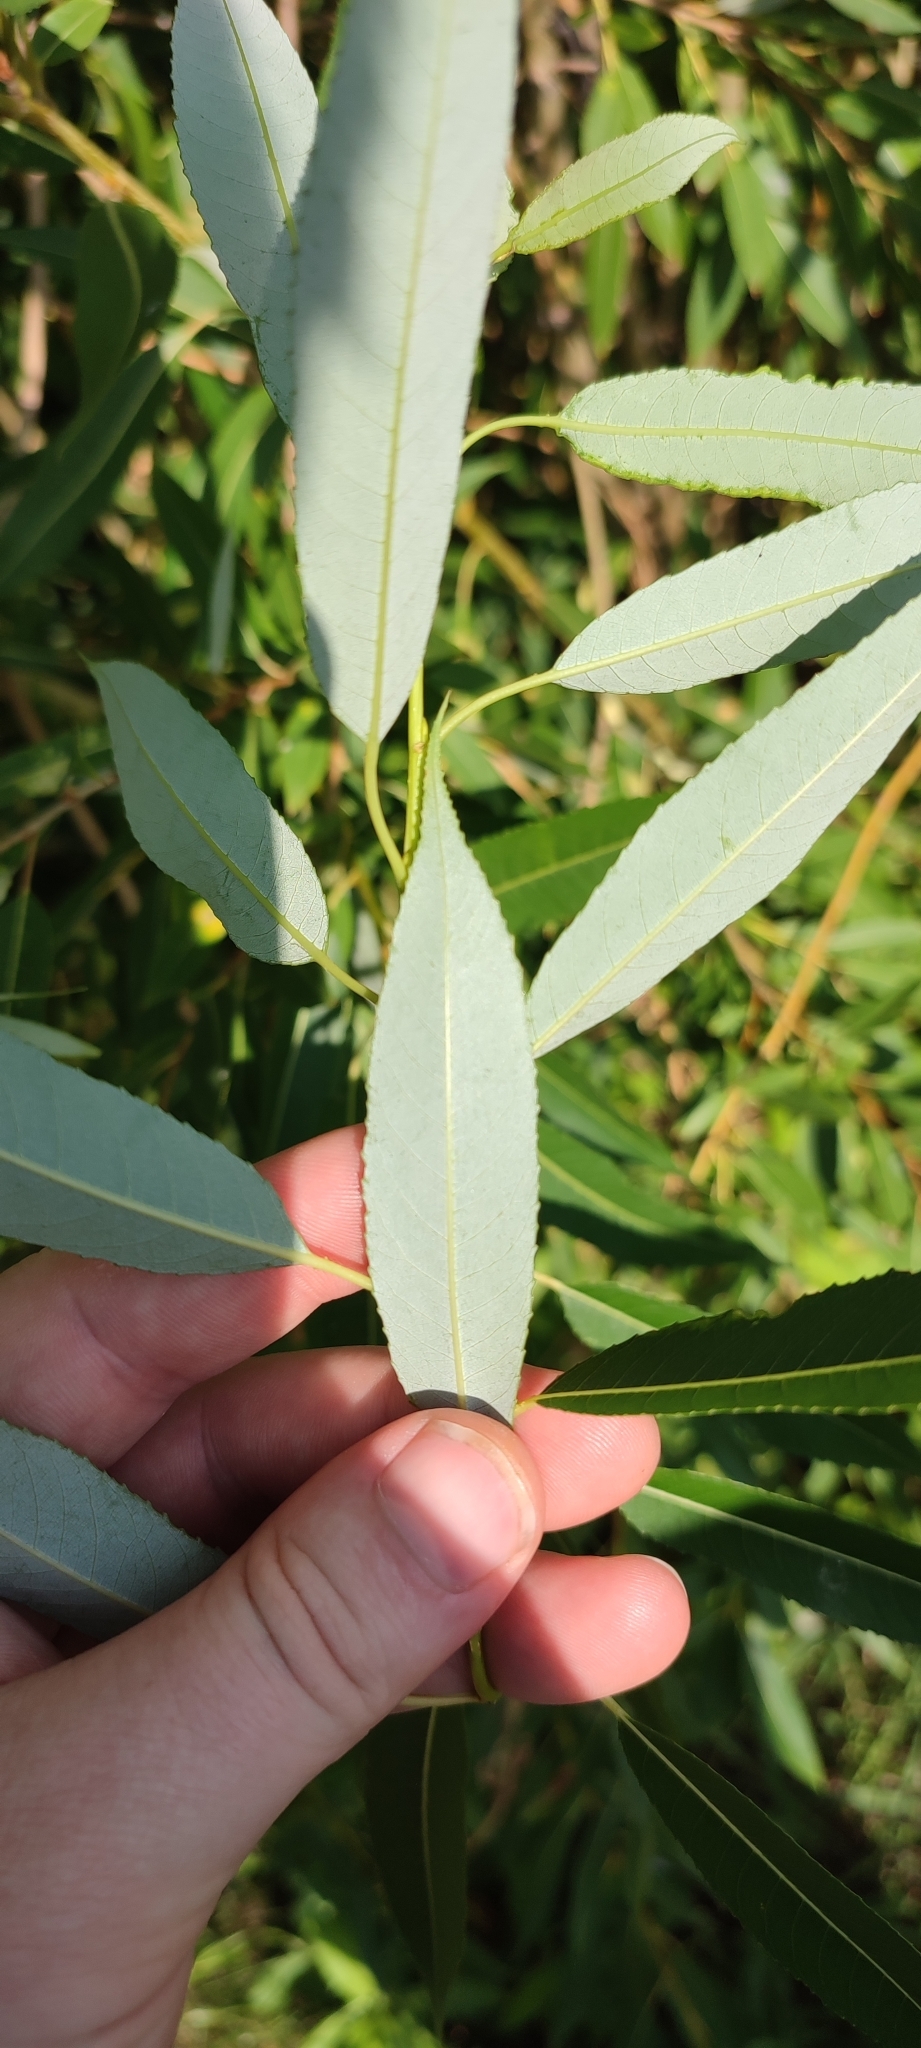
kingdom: Plantae
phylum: Tracheophyta
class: Magnoliopsida
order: Malpighiales
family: Salicaceae
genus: Salix
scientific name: Salix triandra
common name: Almond willow
